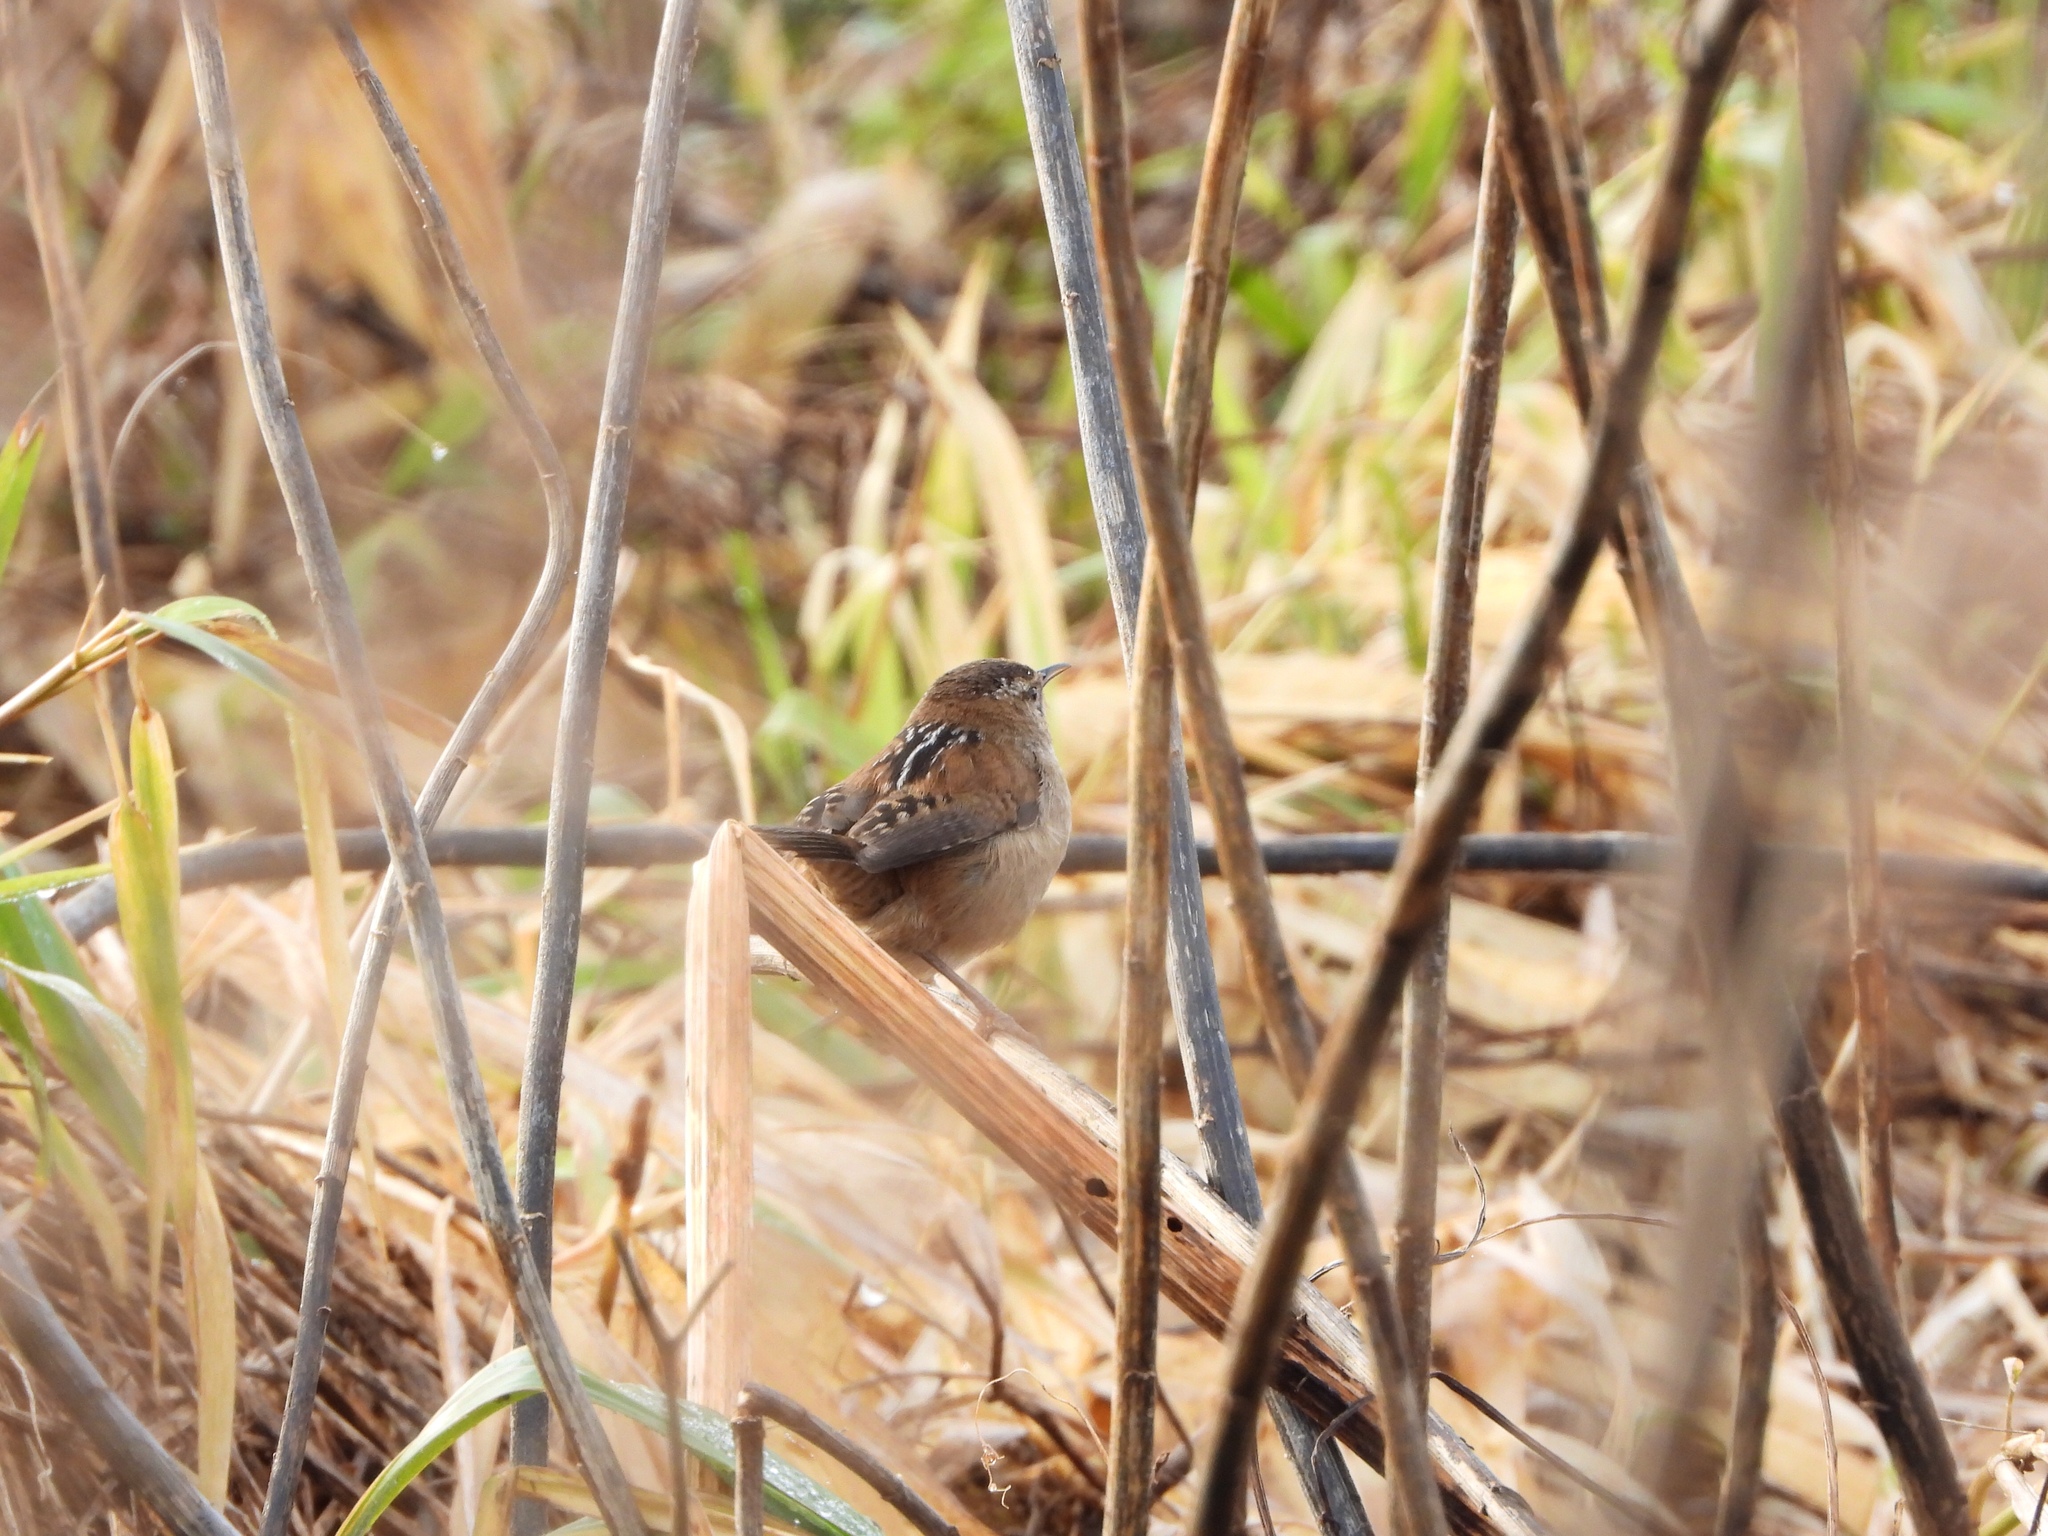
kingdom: Animalia
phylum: Chordata
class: Aves
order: Passeriformes
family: Troglodytidae
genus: Cistothorus
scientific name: Cistothorus palustris
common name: Marsh wren
